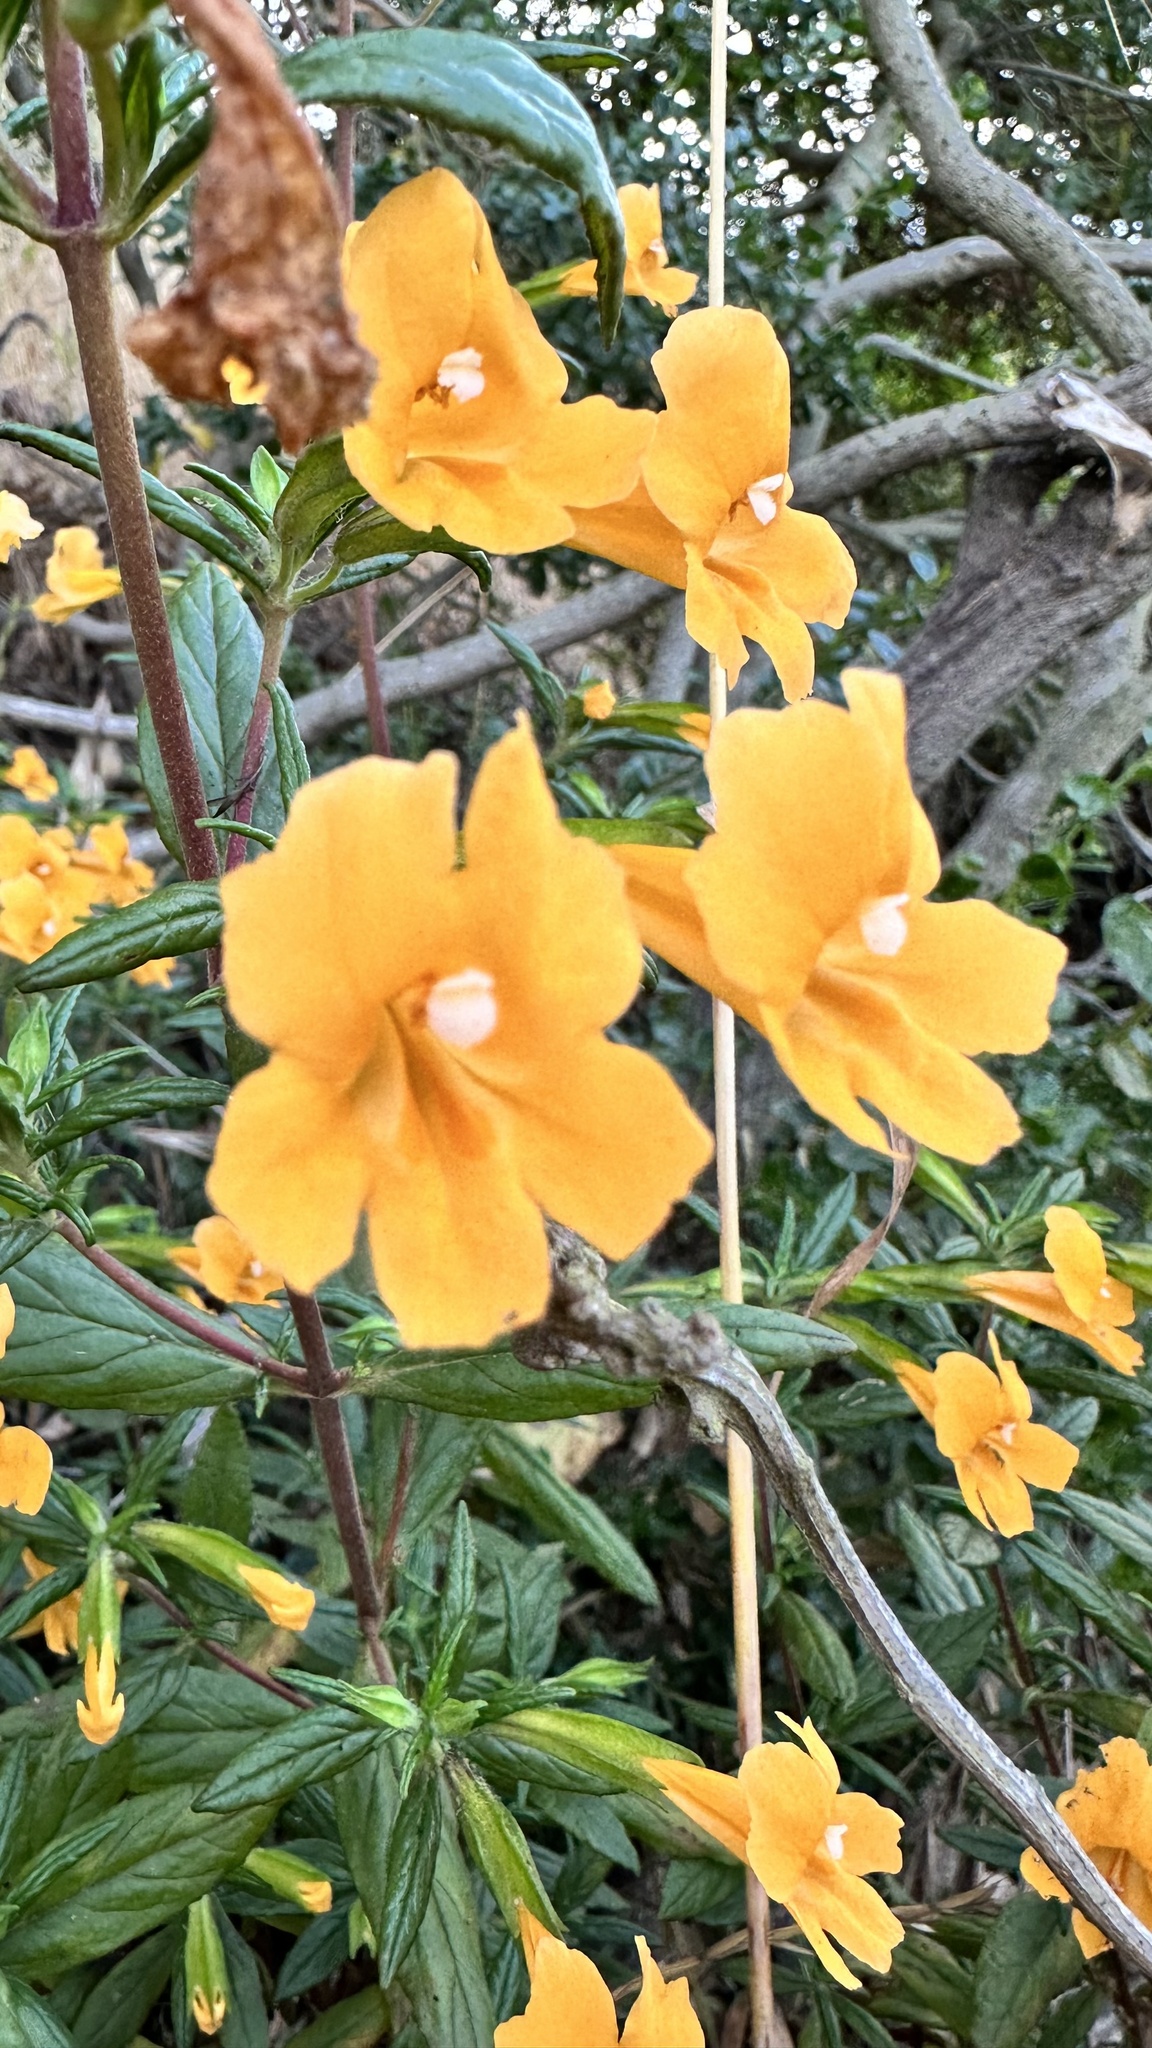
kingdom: Plantae
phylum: Tracheophyta
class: Magnoliopsida
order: Lamiales
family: Phrymaceae
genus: Diplacus
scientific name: Diplacus aurantiacus
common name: Bush monkey-flower
